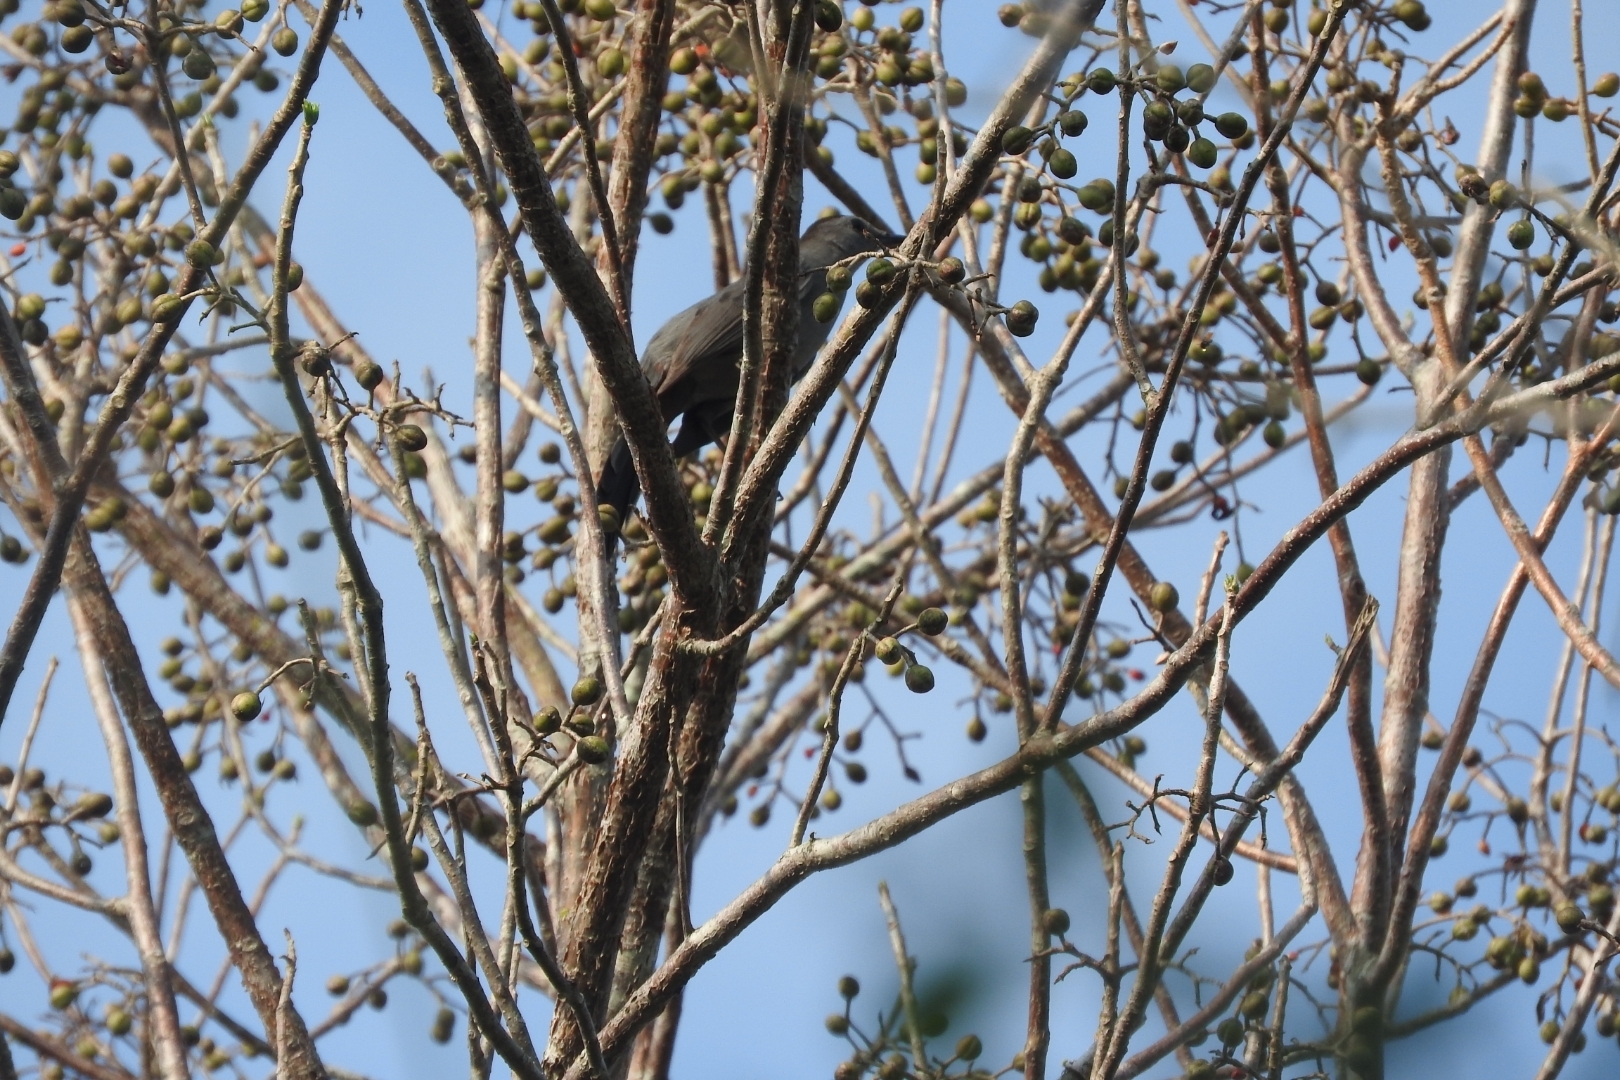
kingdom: Animalia
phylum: Chordata
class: Aves
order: Passeriformes
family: Mimidae
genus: Dumetella
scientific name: Dumetella carolinensis
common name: Gray catbird
